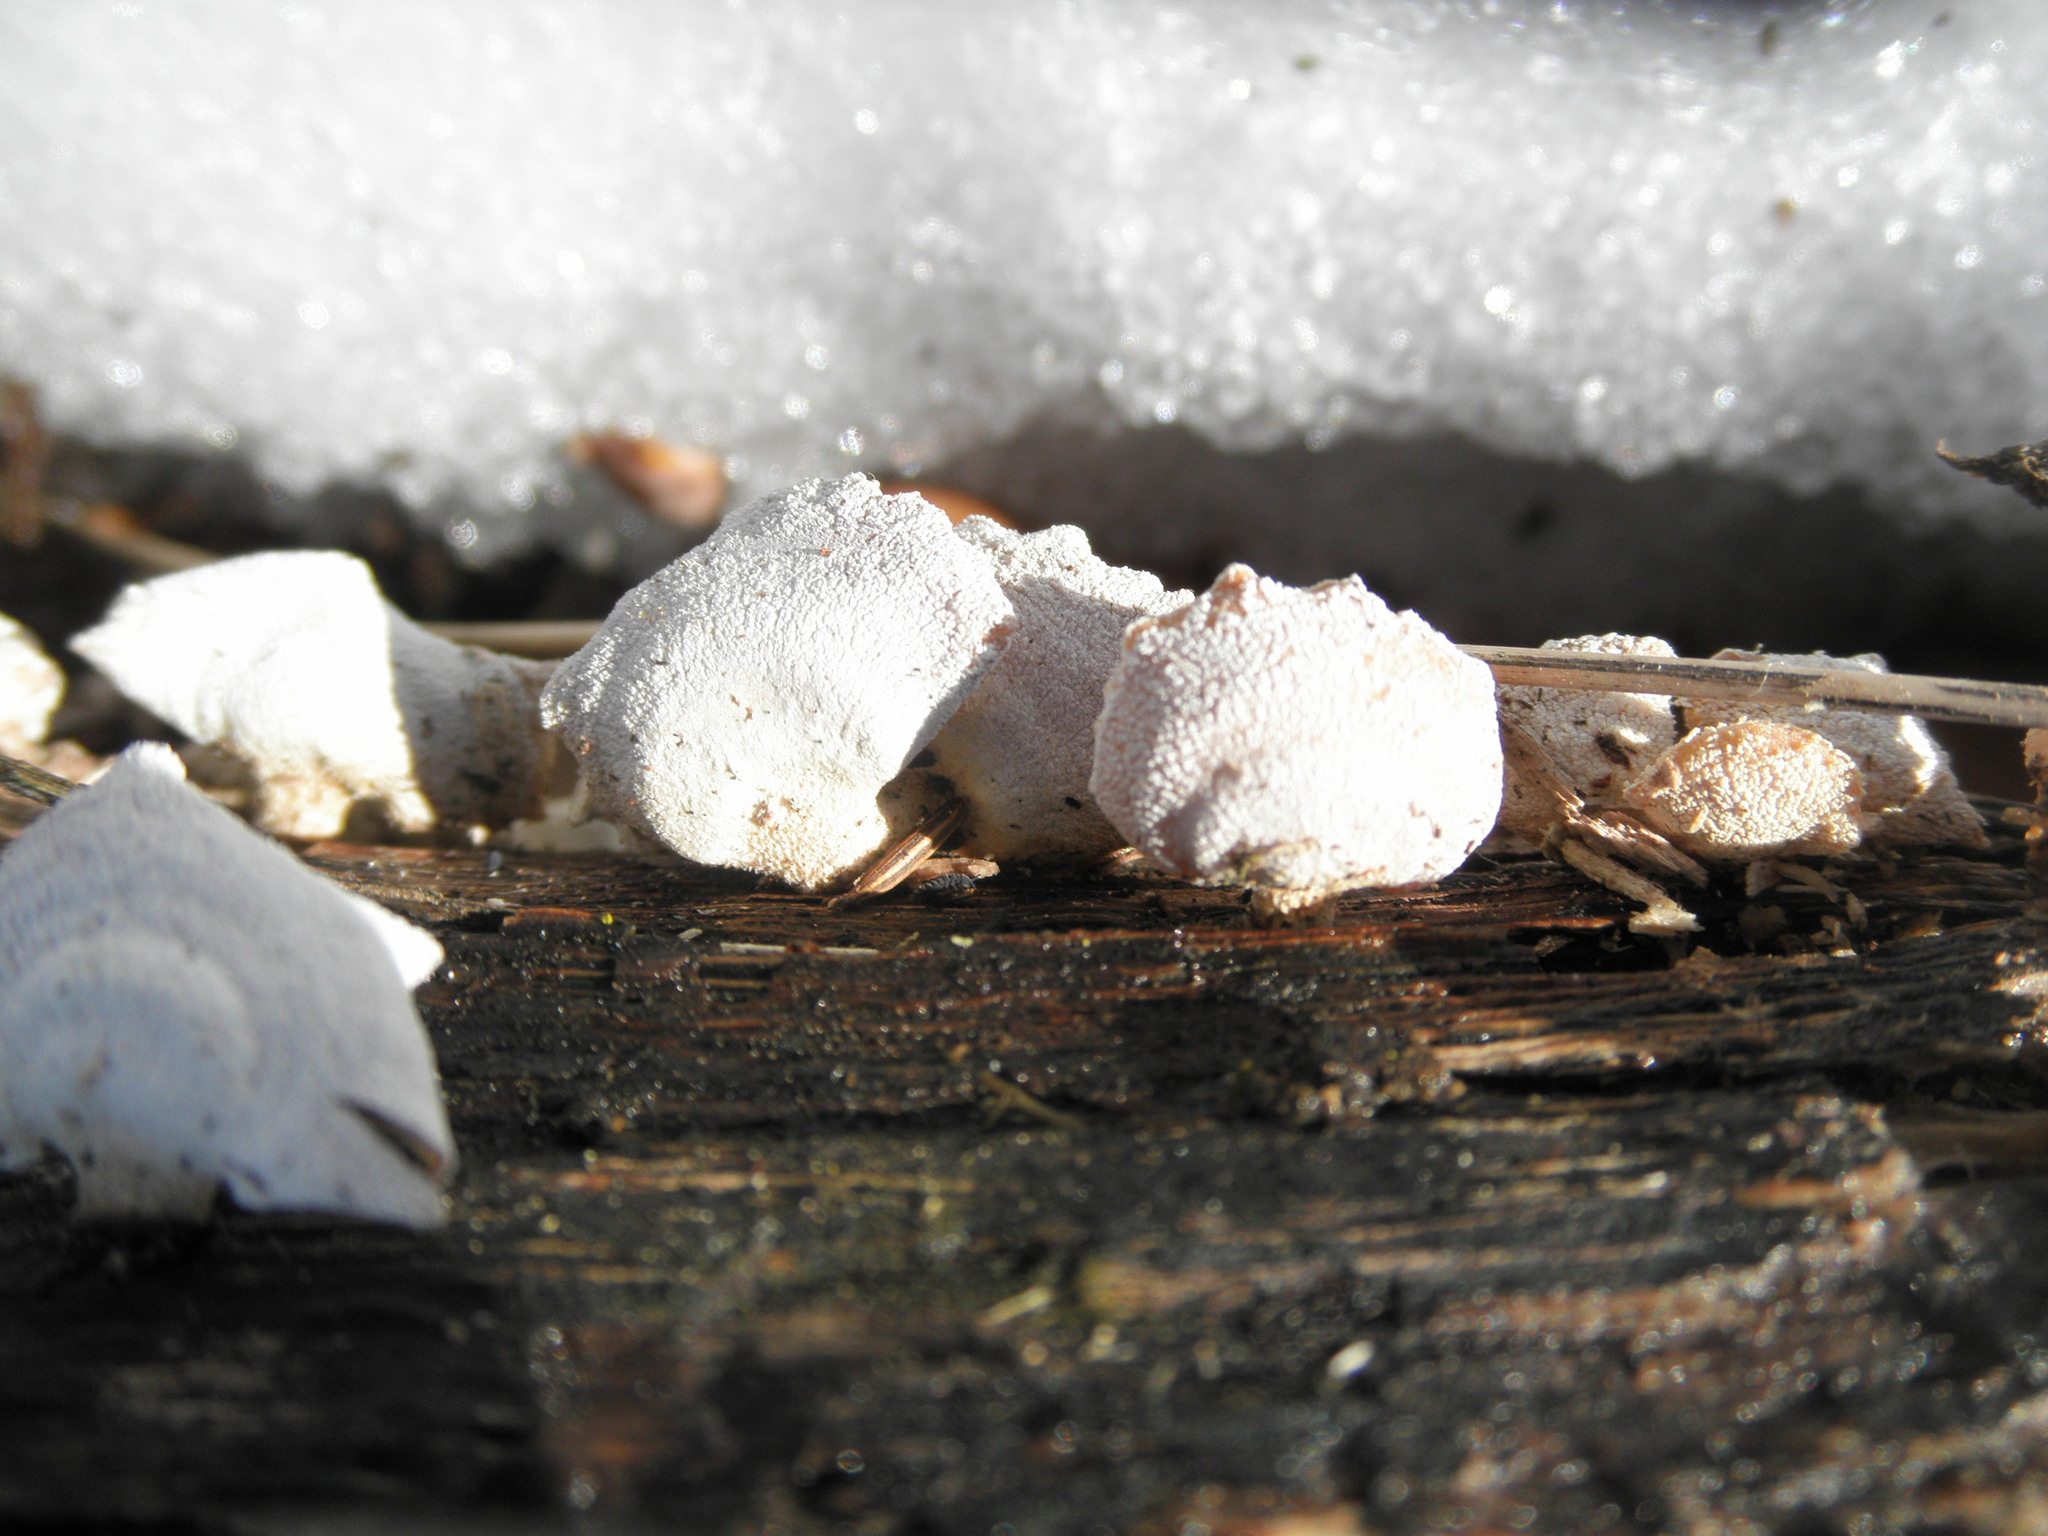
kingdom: Fungi
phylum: Basidiomycota
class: Agaricomycetes
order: Agaricales
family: Mycenaceae
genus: Panellus
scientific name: Panellus stipticus
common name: Bitter oysterling
